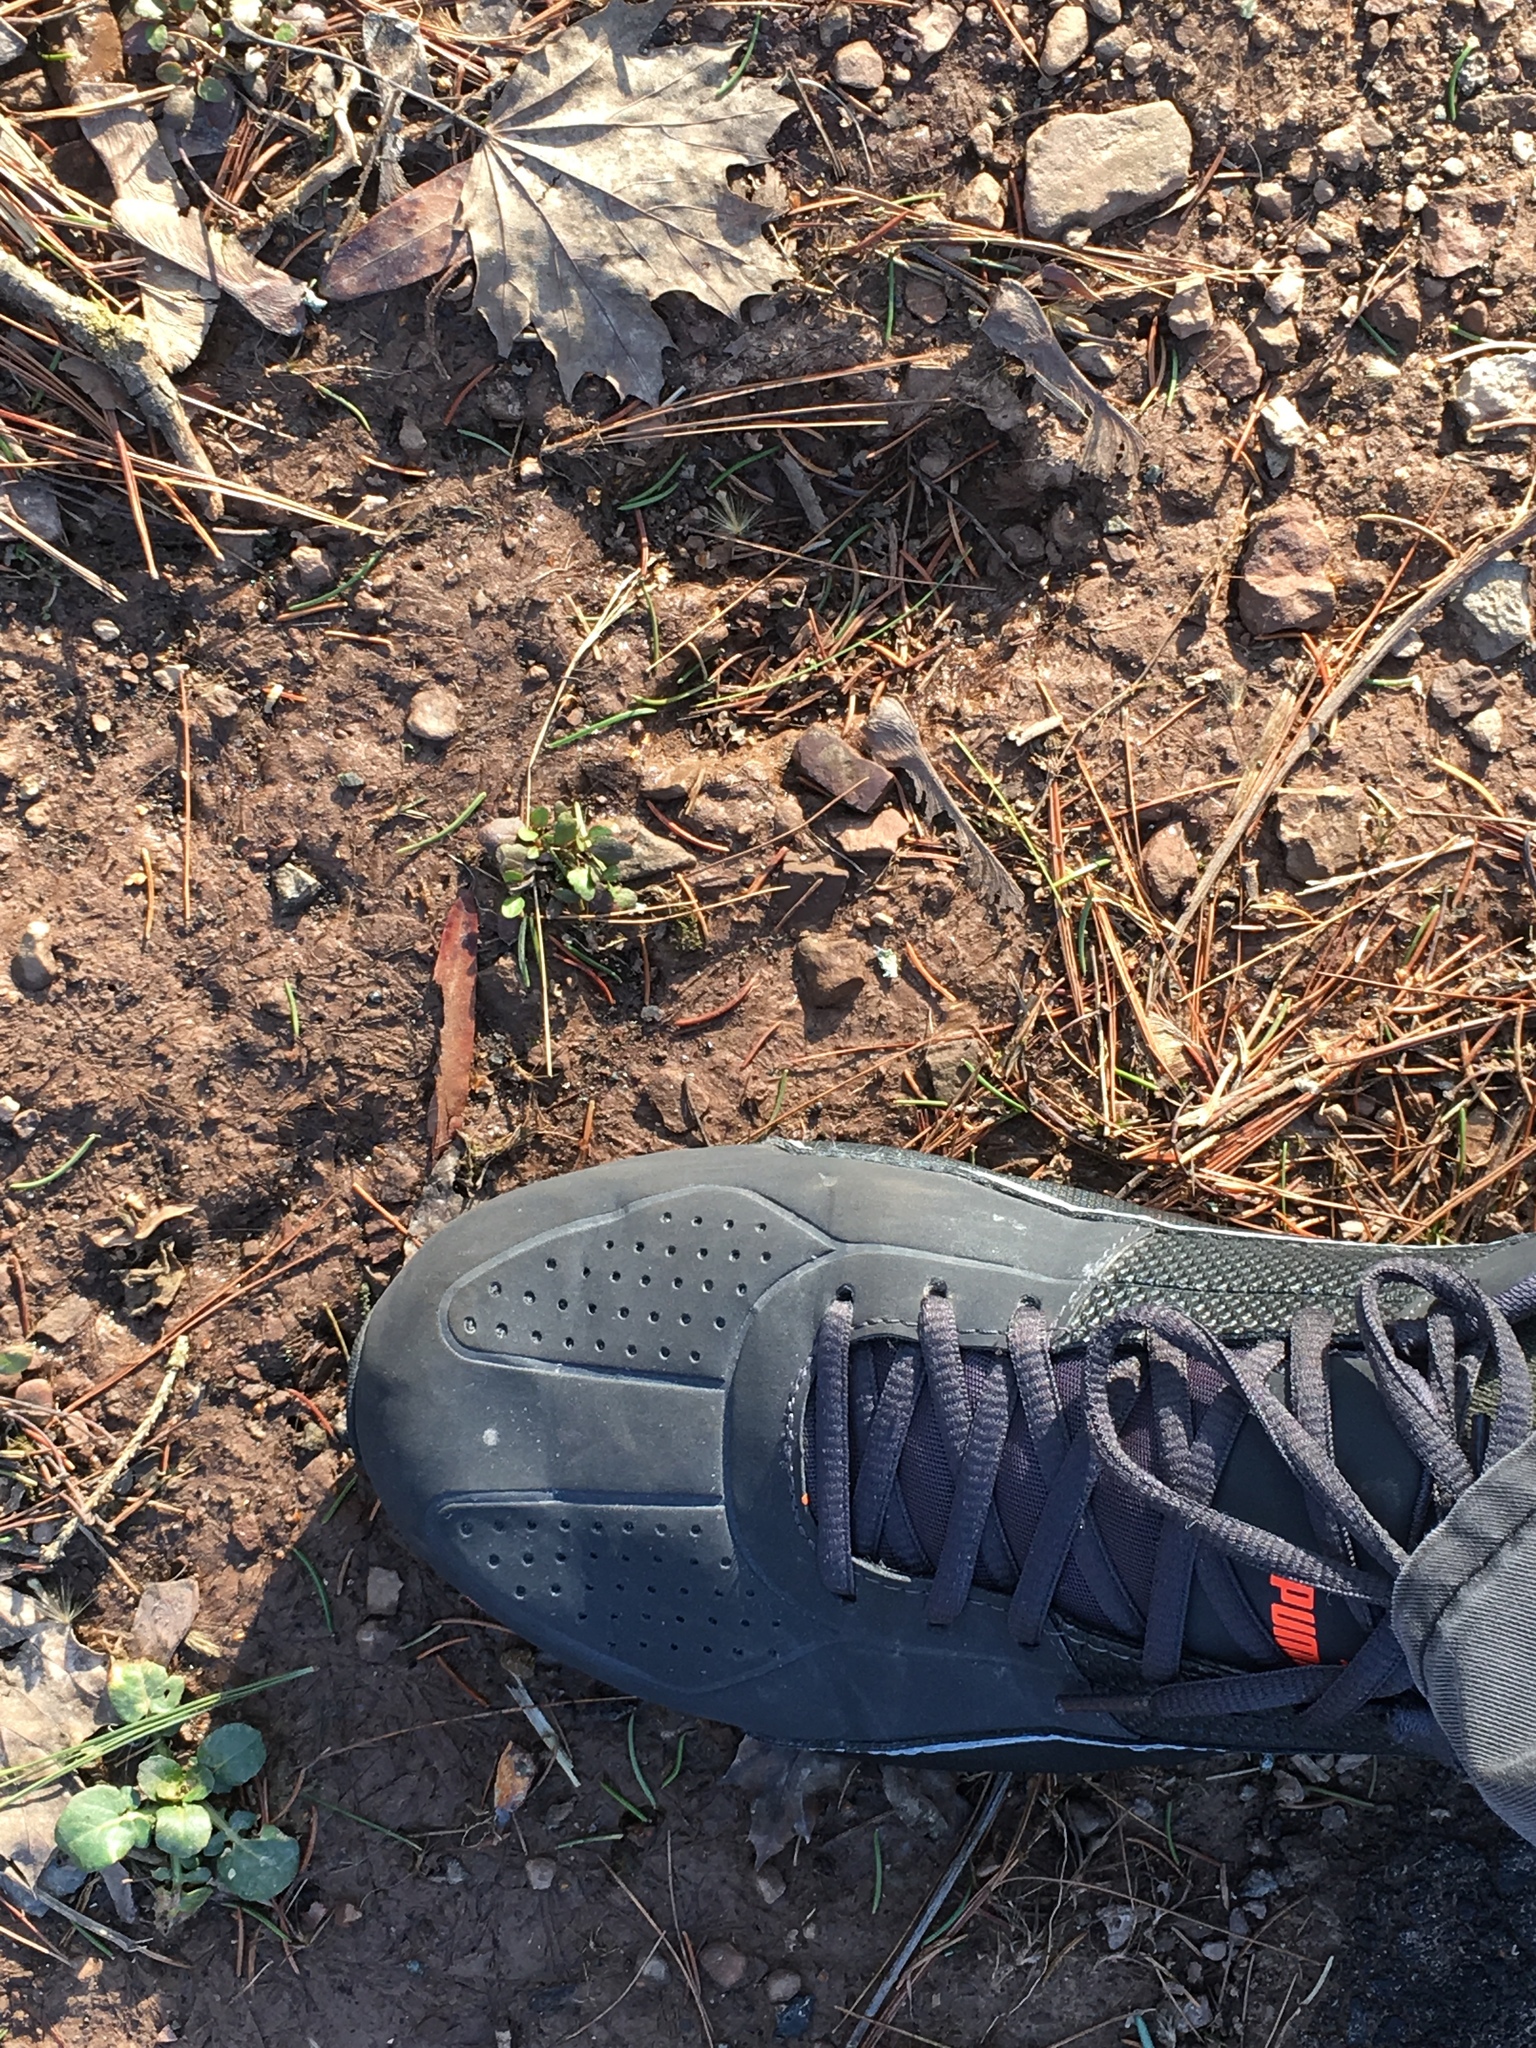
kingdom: Animalia
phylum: Chordata
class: Mammalia
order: Artiodactyla
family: Cervidae
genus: Odocoileus
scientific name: Odocoileus virginianus
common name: White-tailed deer
